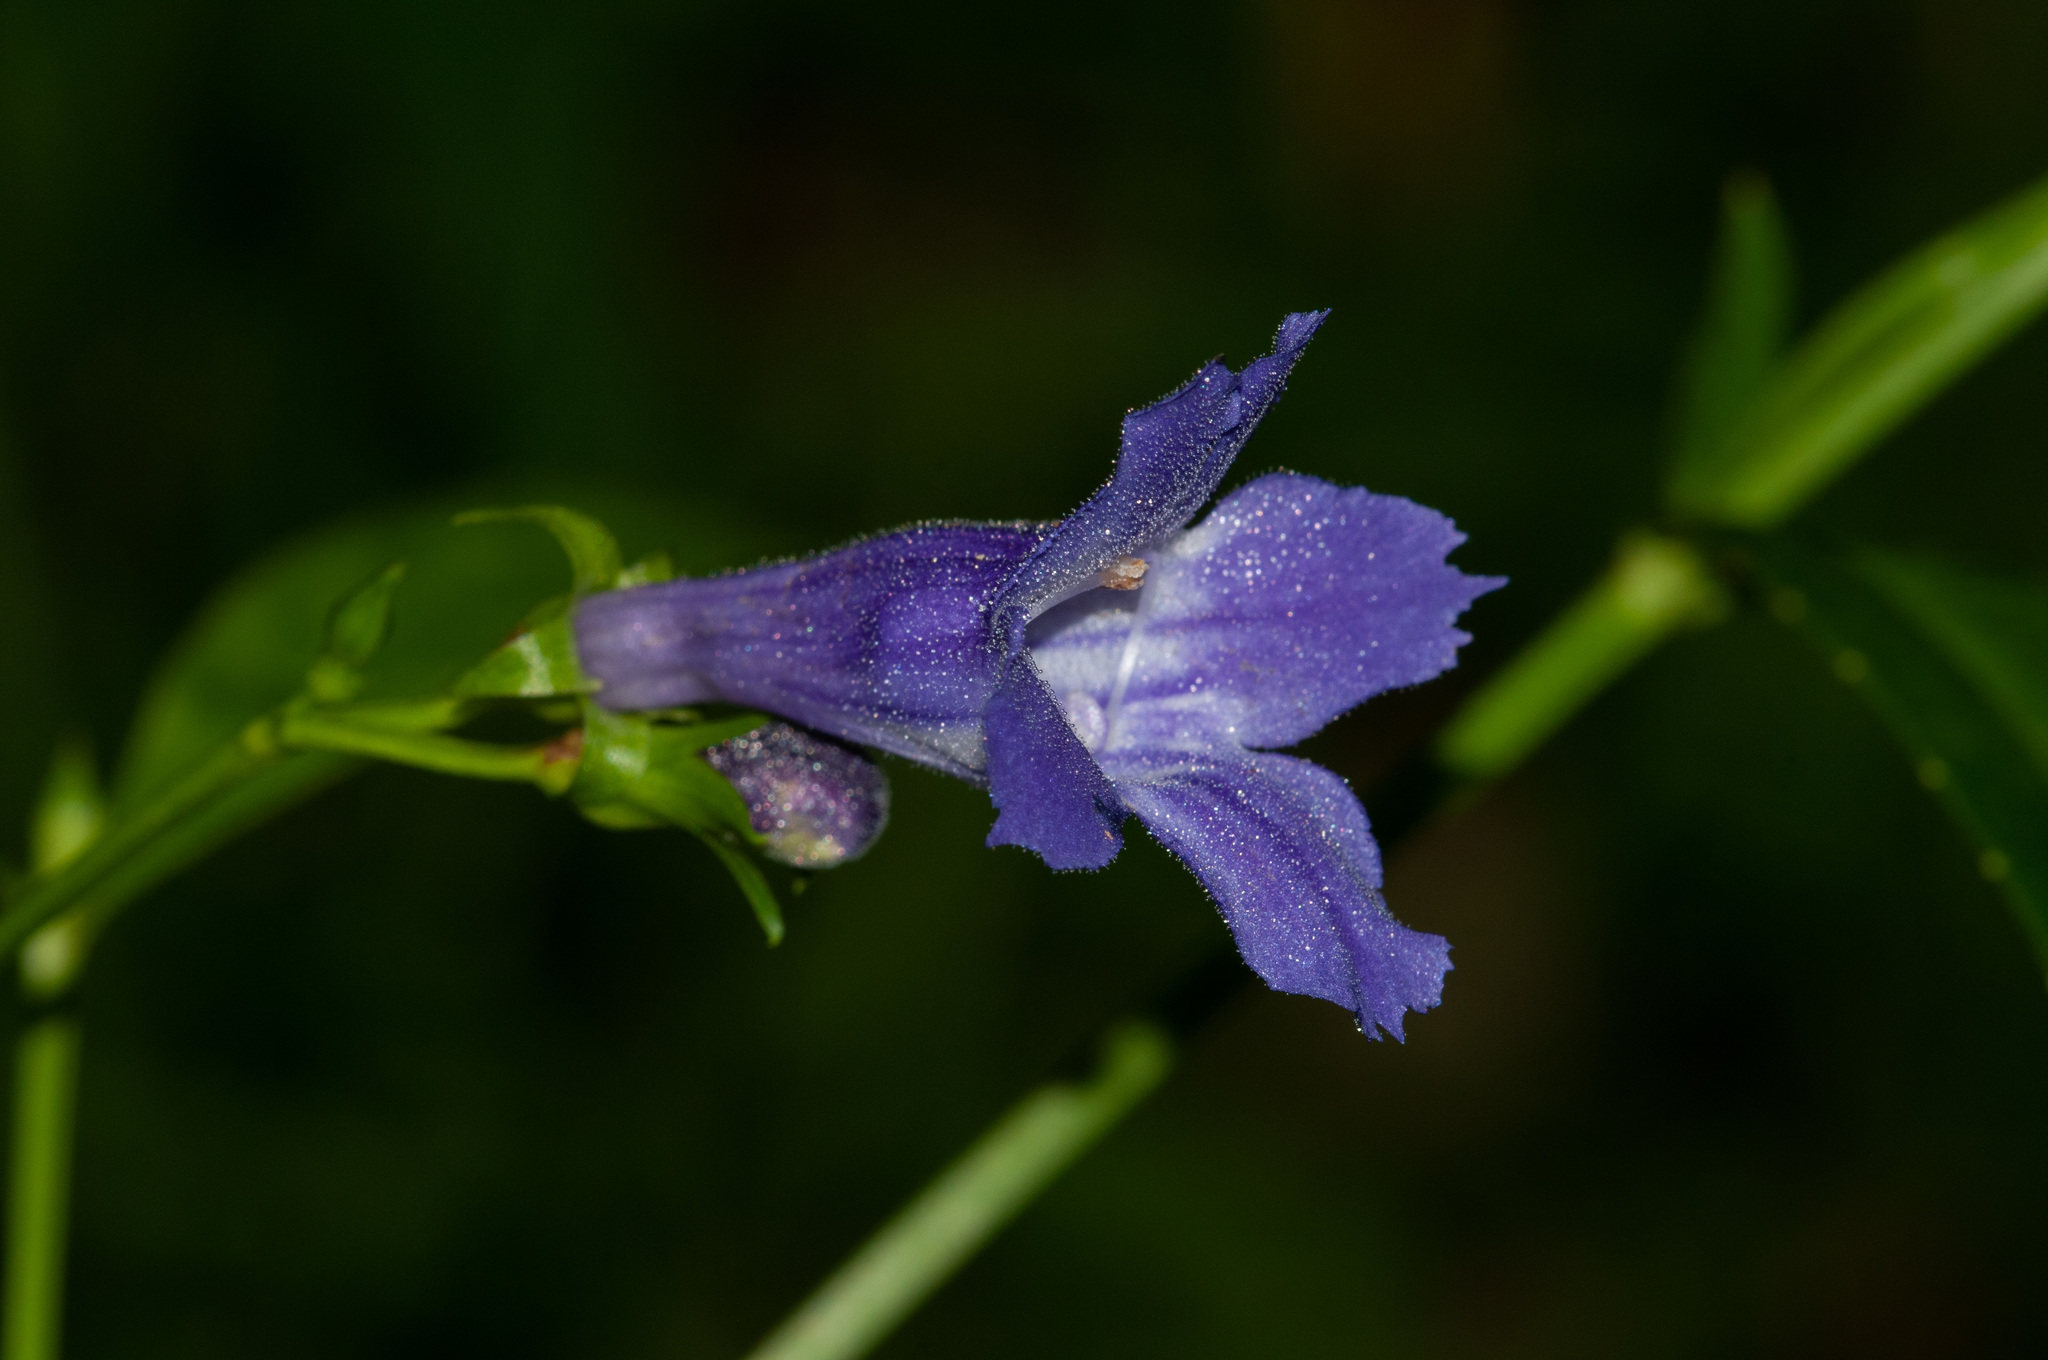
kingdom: Plantae
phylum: Tracheophyta
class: Magnoliopsida
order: Lamiales
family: Linderniaceae
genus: Artanema
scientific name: Artanema fimbriatum
